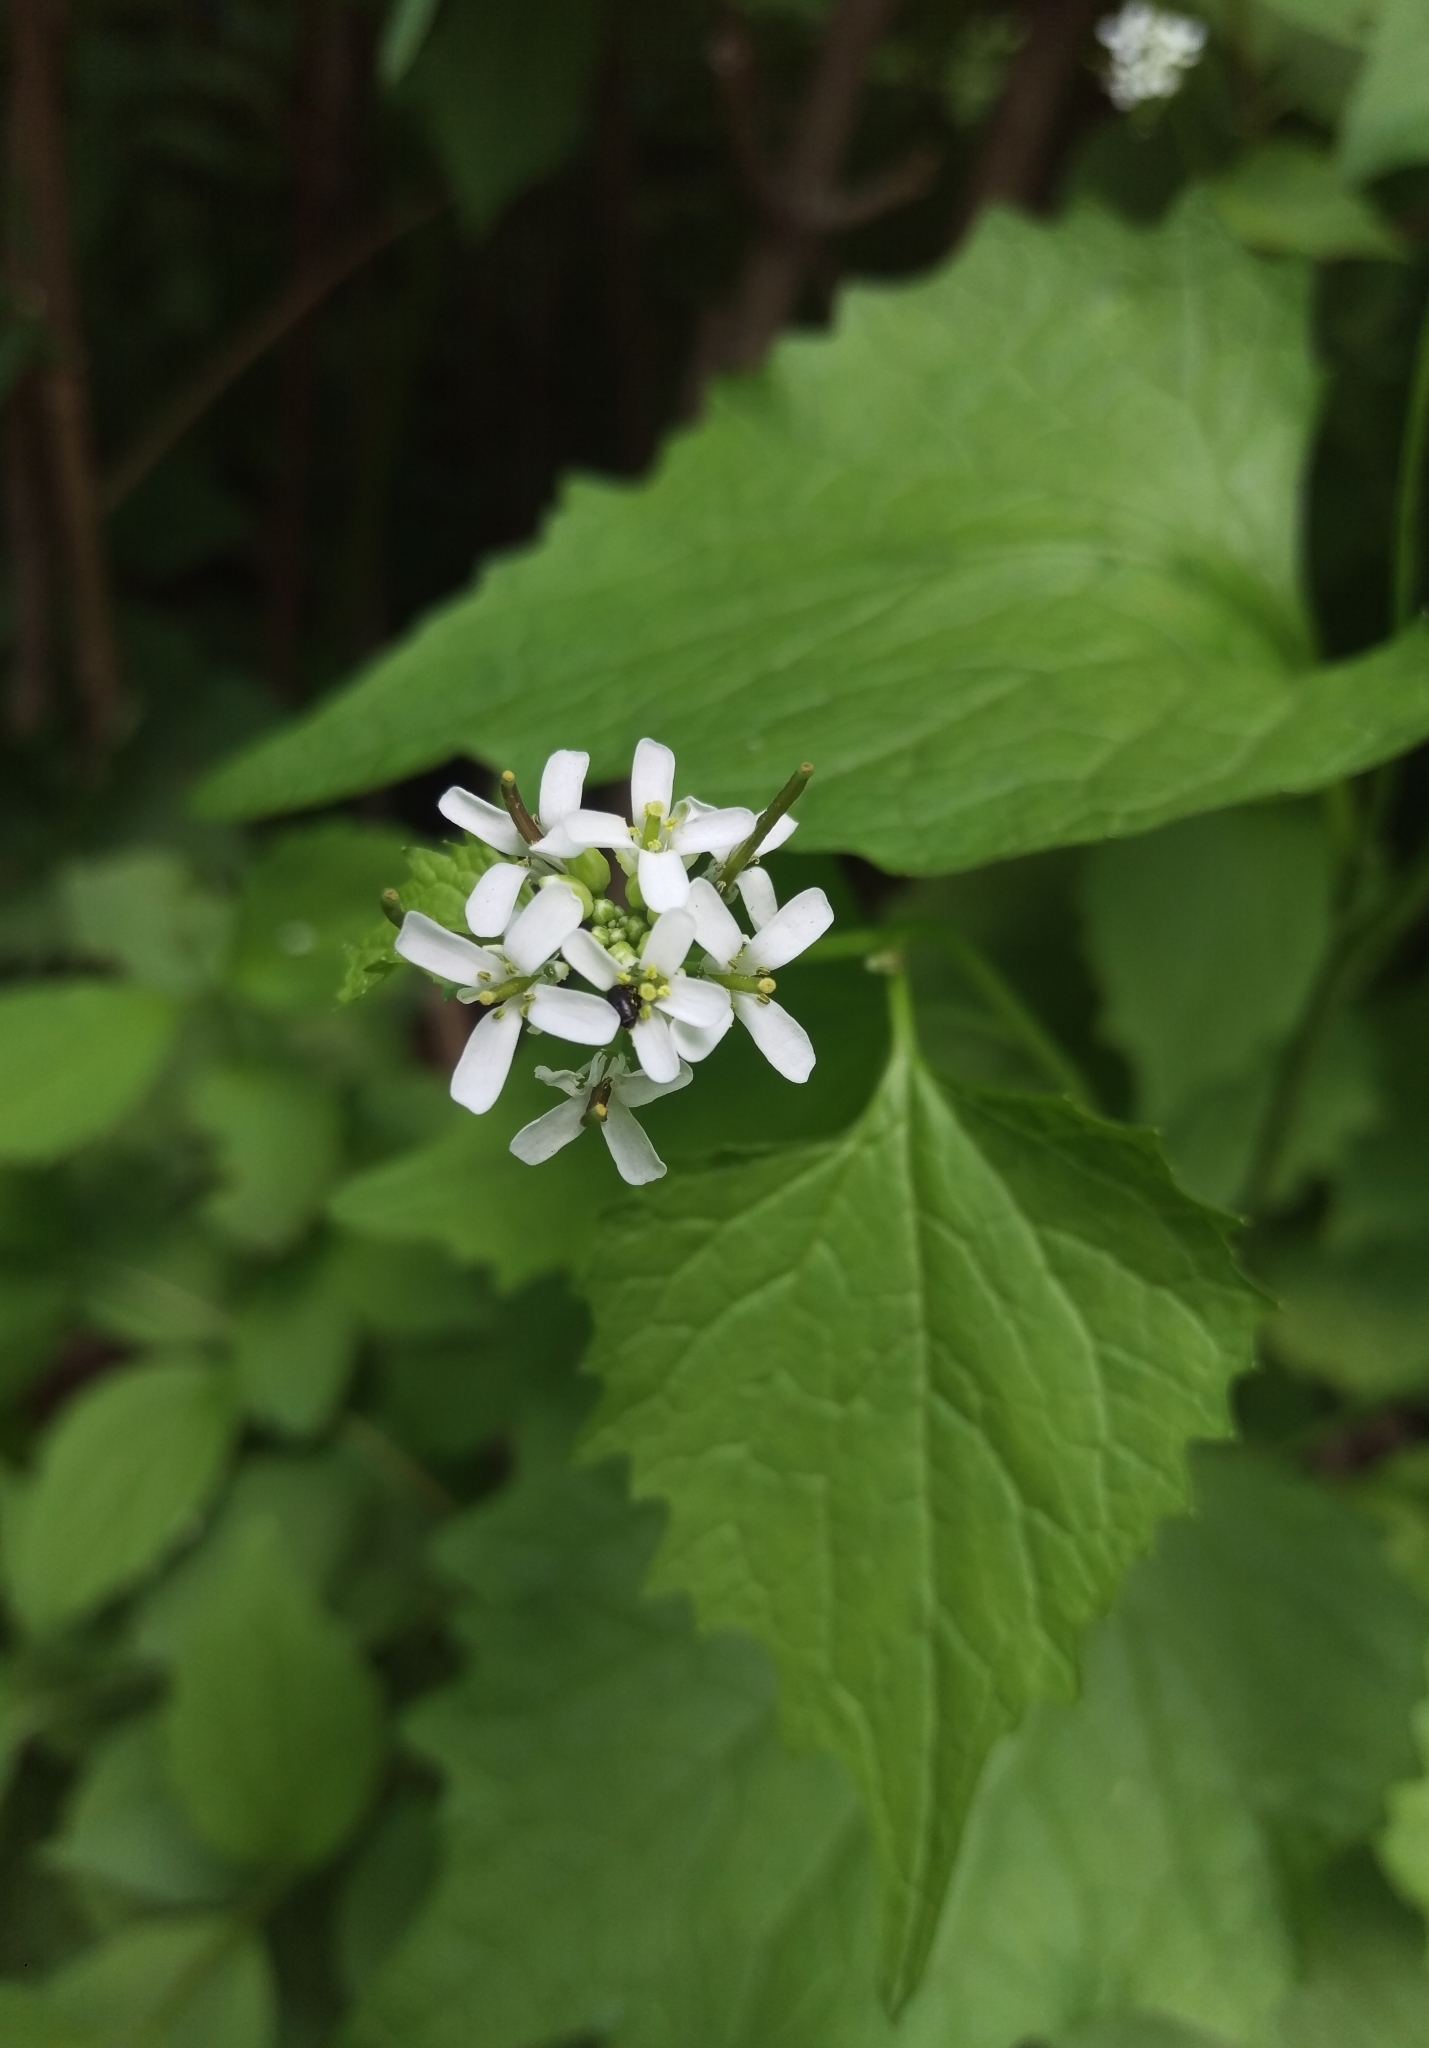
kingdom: Plantae
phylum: Tracheophyta
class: Magnoliopsida
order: Brassicales
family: Brassicaceae
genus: Alliaria
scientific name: Alliaria petiolata
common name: Garlic mustard
